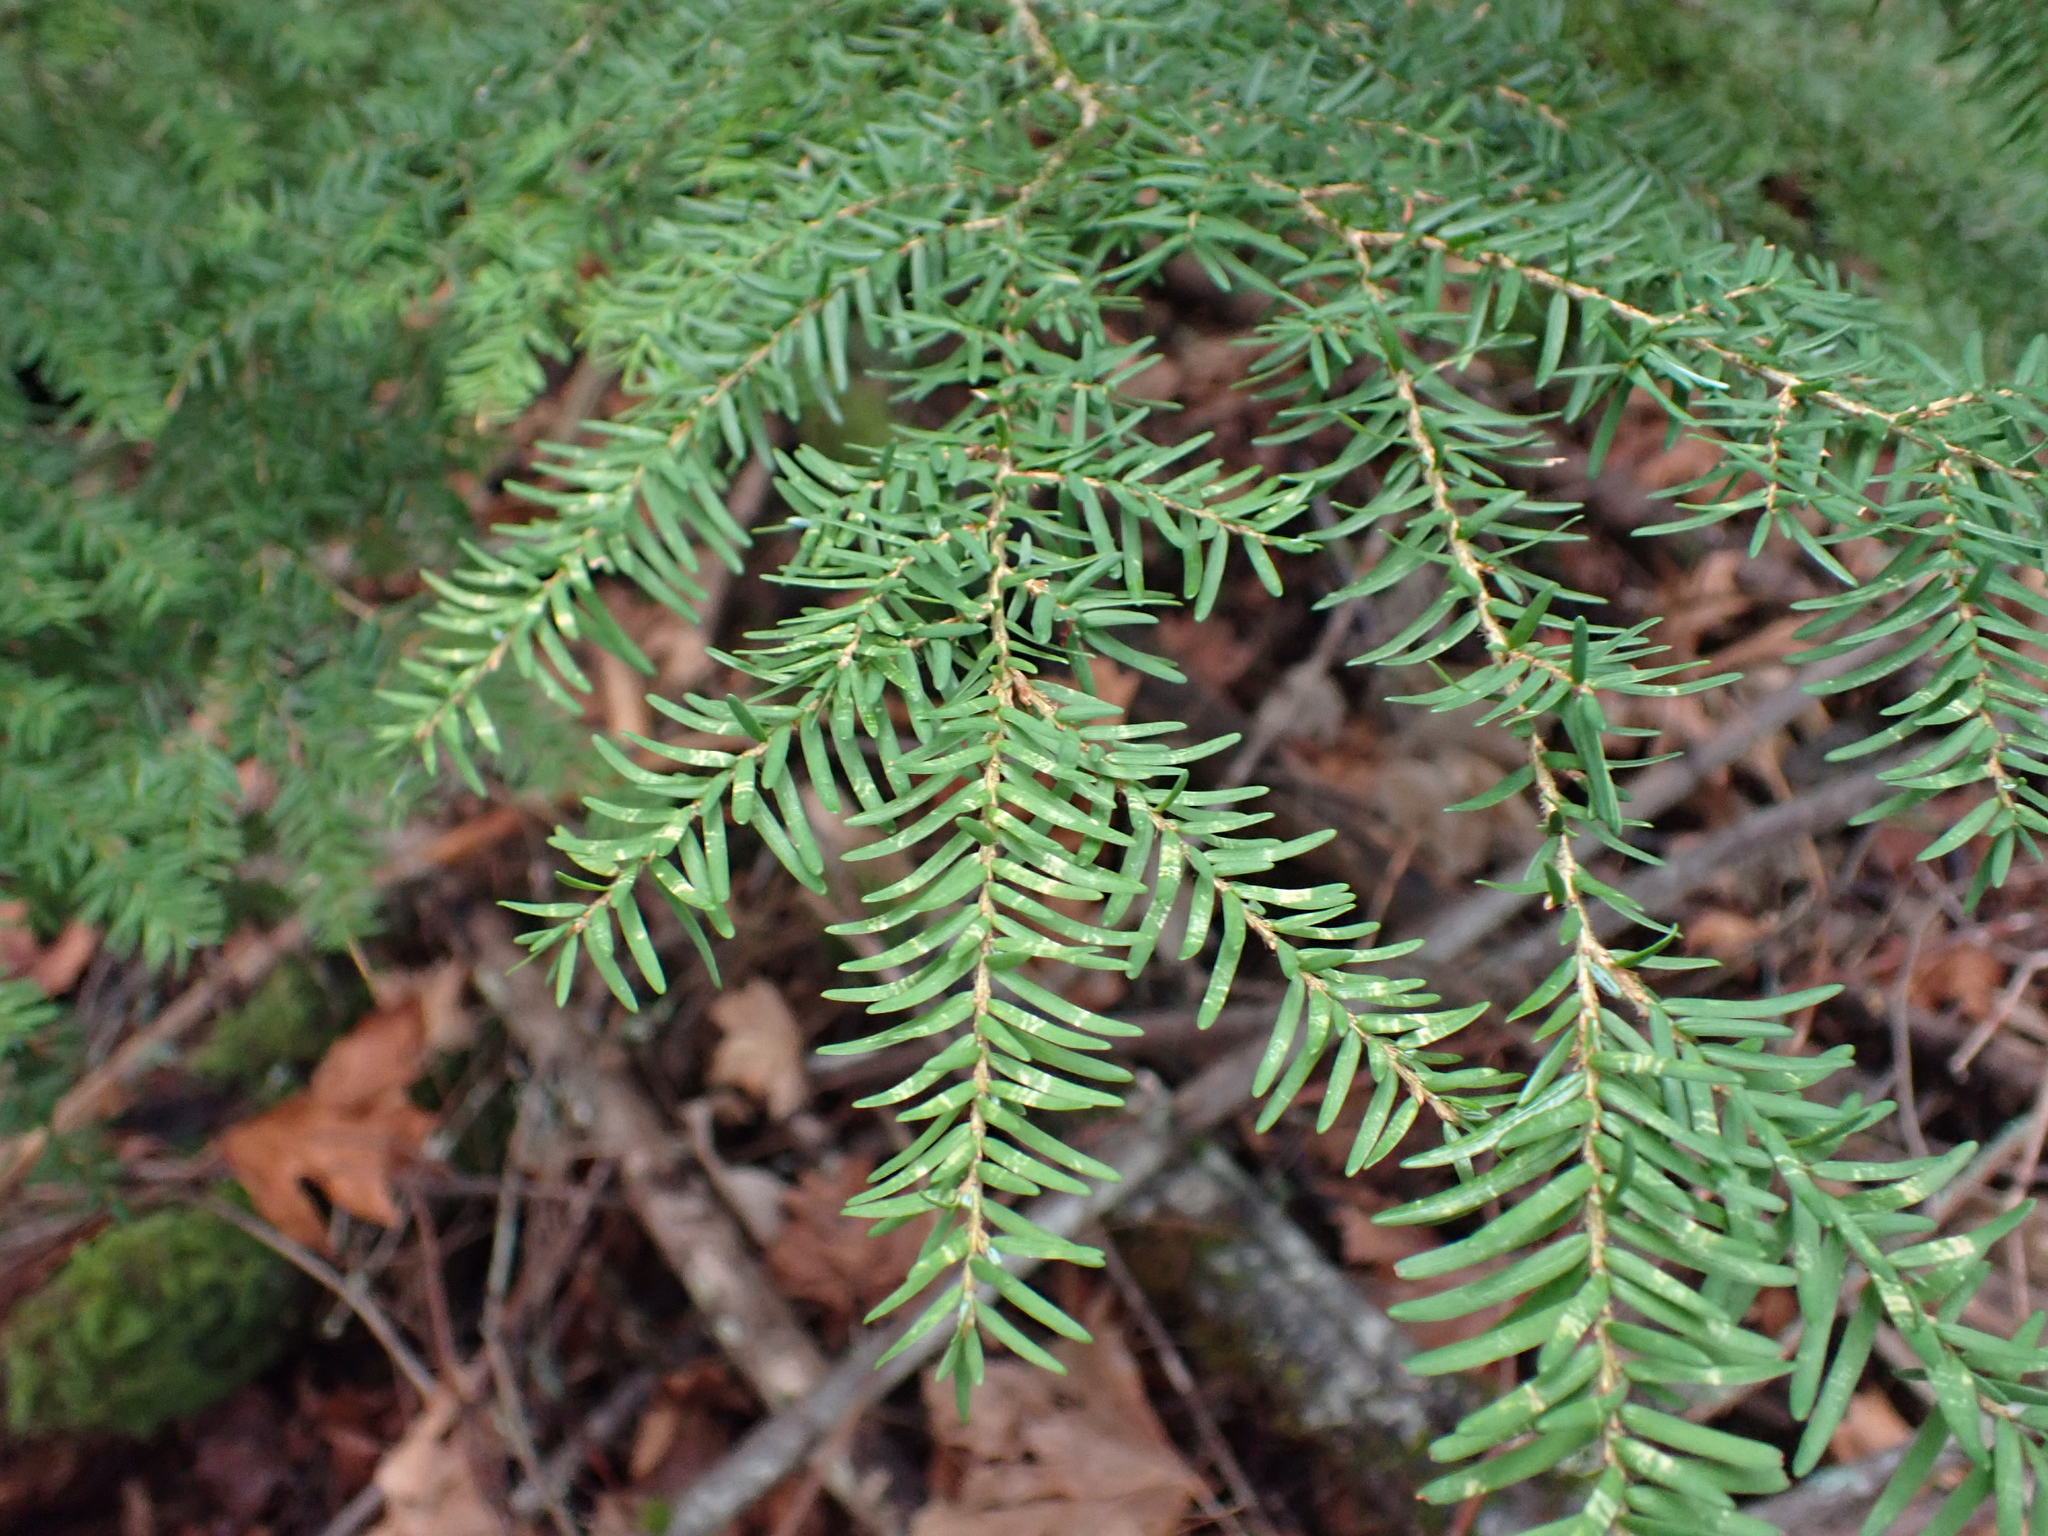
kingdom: Plantae
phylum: Tracheophyta
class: Pinopsida
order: Pinales
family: Pinaceae
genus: Tsuga
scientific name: Tsuga heterophylla
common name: Western hemlock
